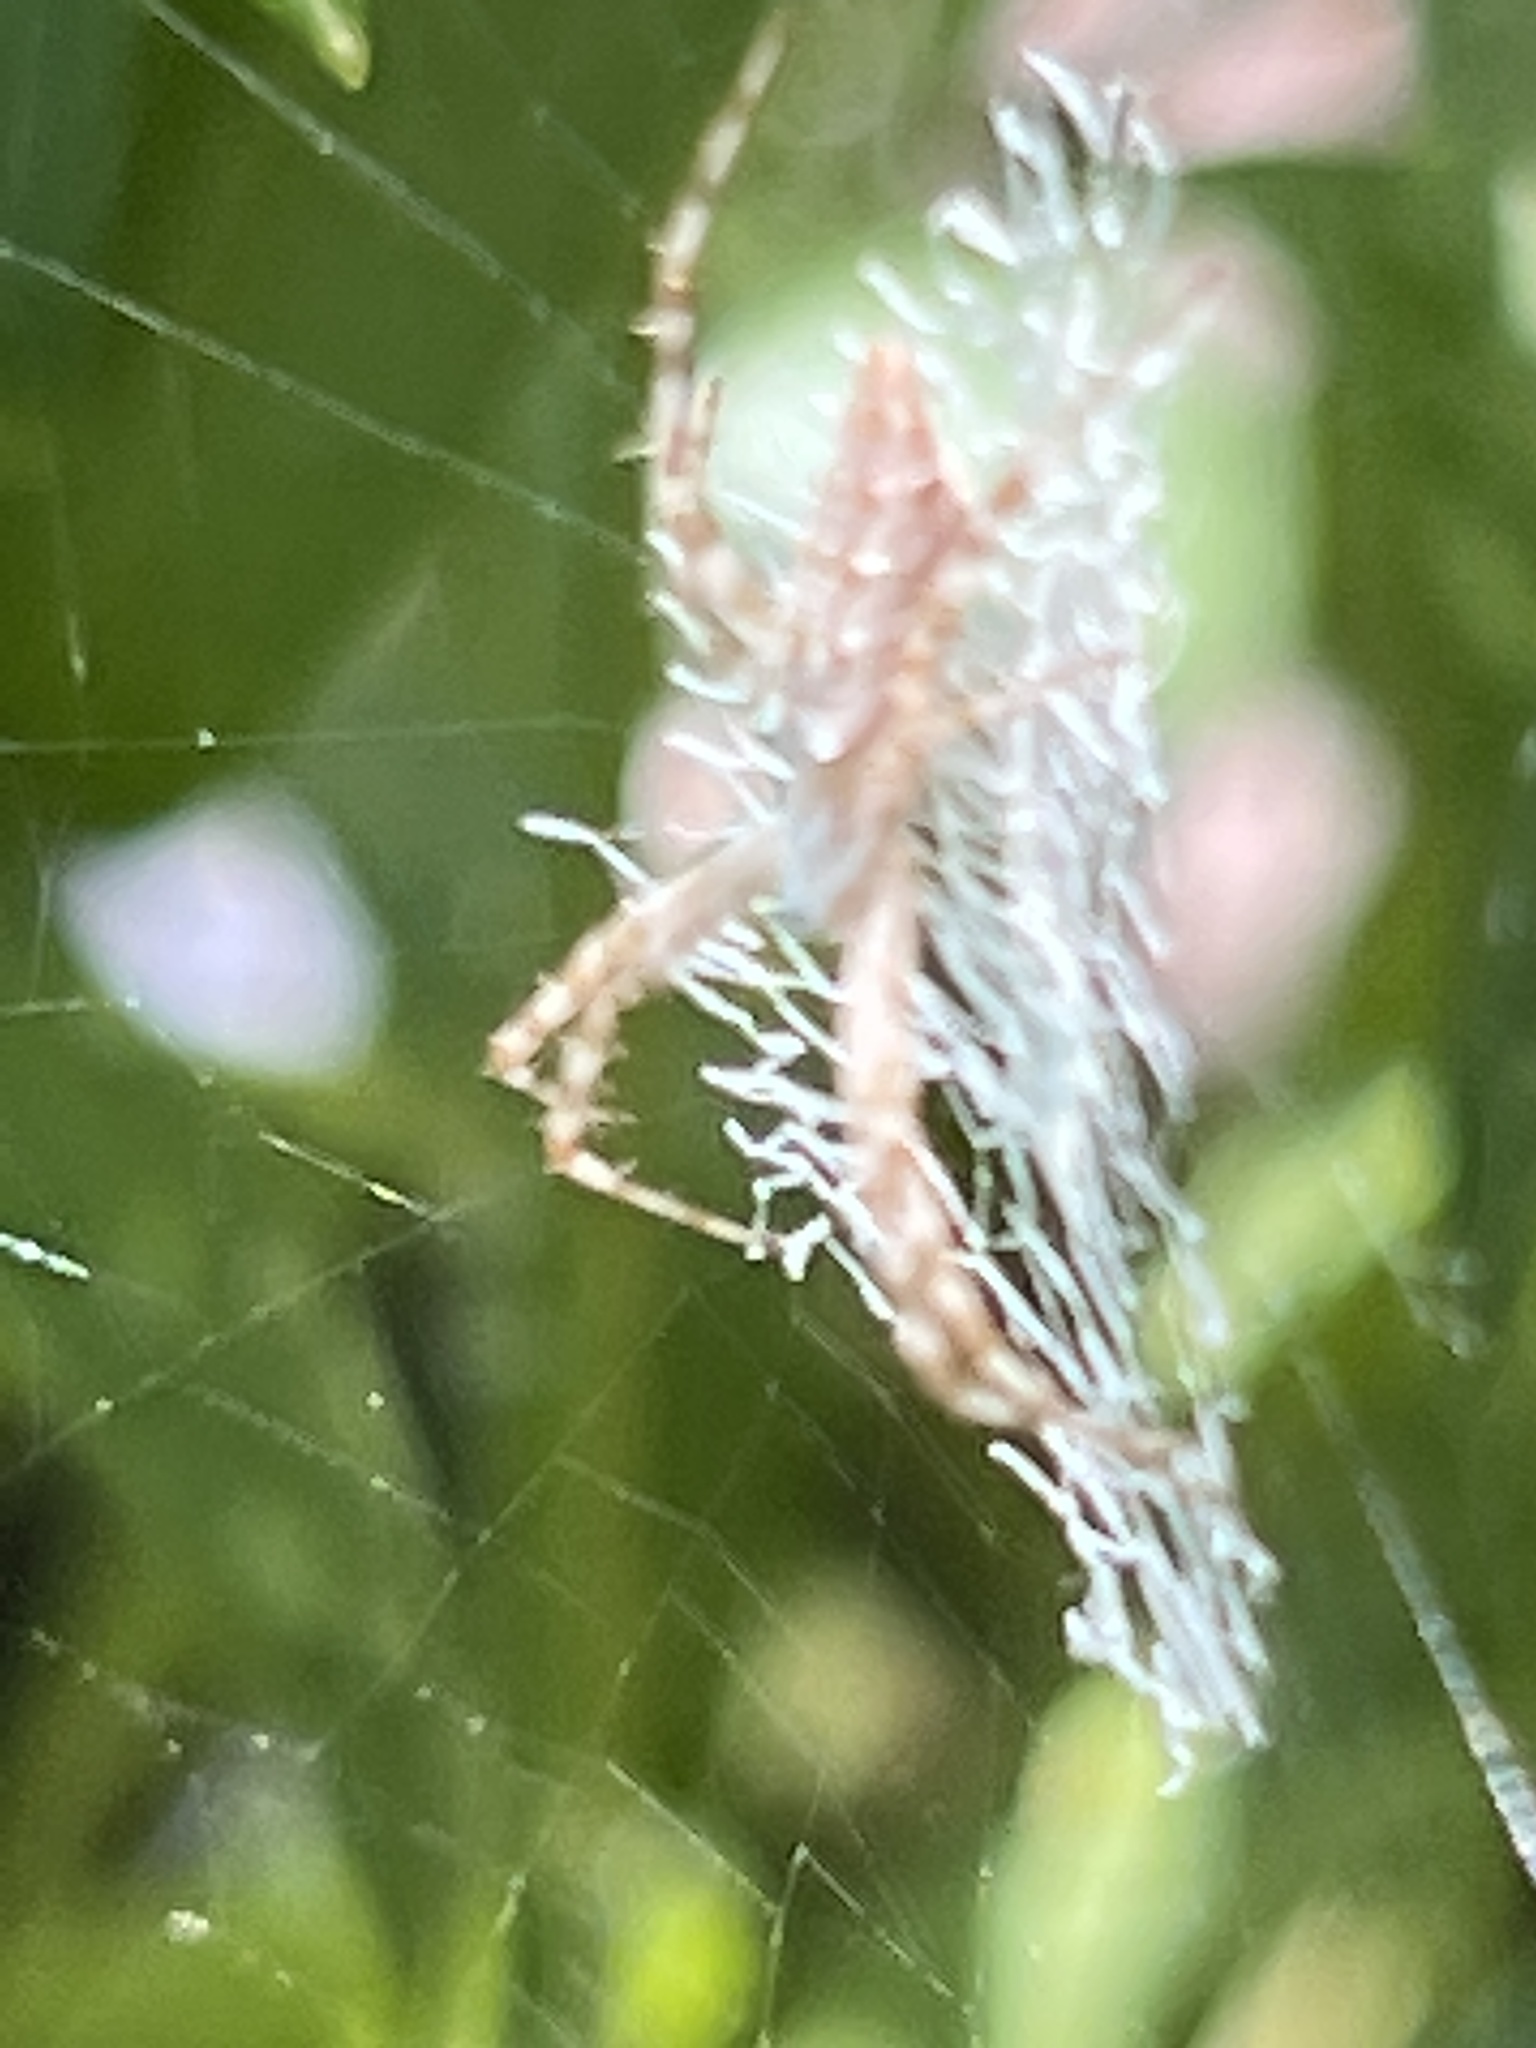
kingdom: Animalia
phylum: Arthropoda
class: Arachnida
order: Araneae
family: Araneidae
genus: Argiope
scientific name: Argiope aurantia
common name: Orb weavers
